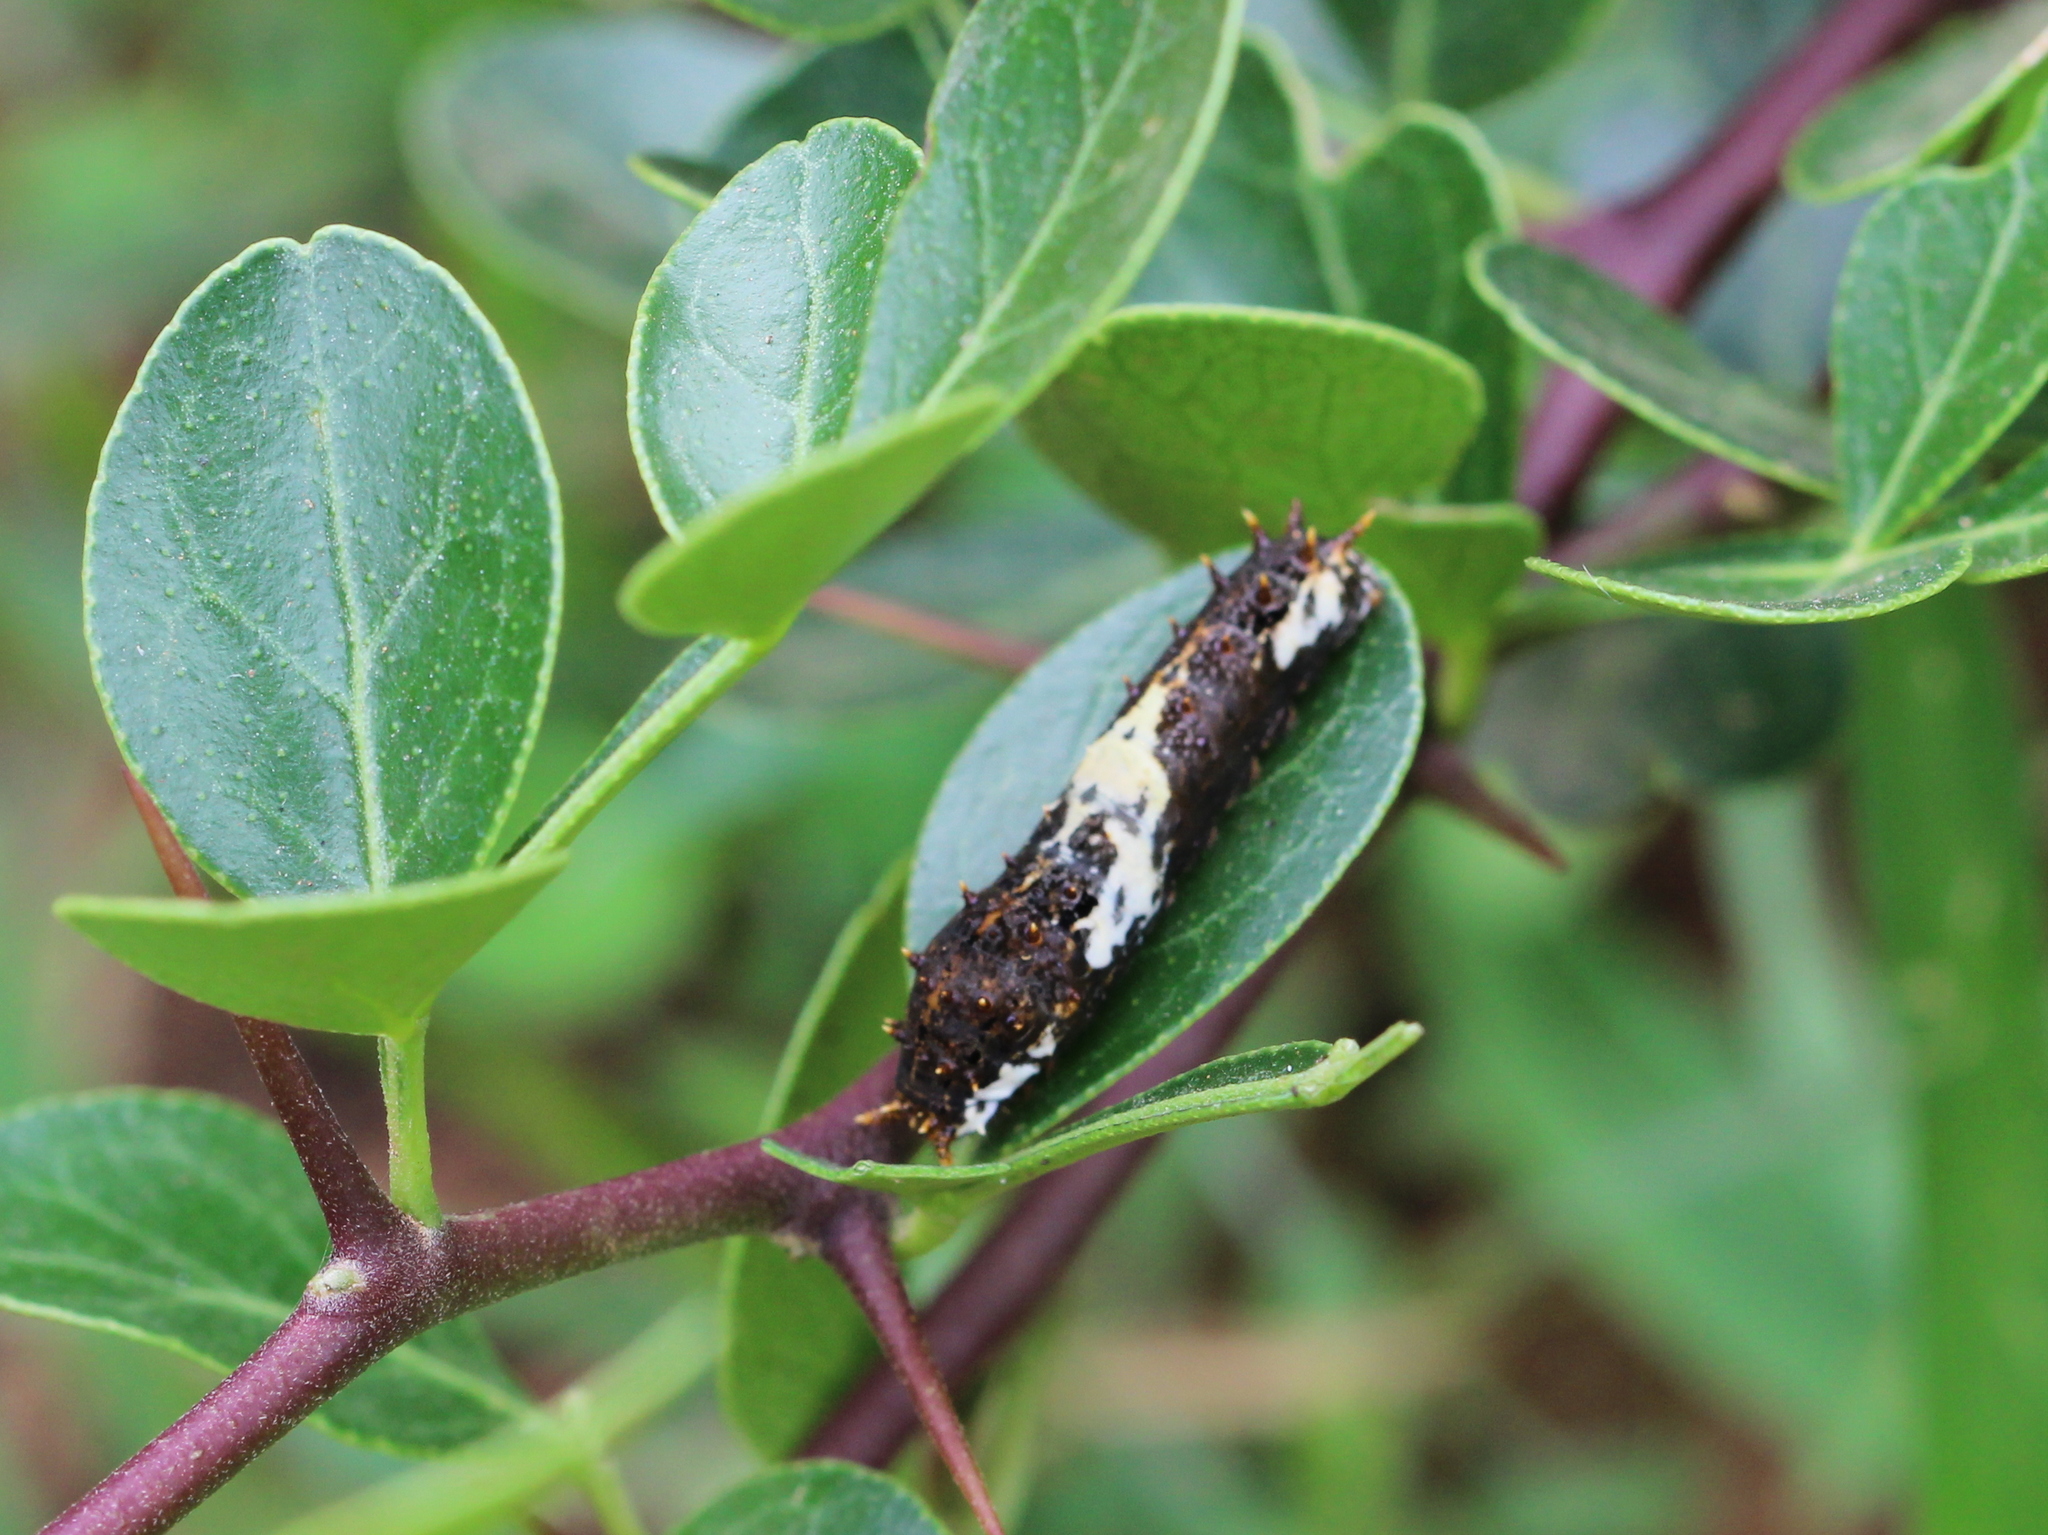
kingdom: Animalia
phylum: Arthropoda
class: Insecta
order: Lepidoptera
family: Papilionidae
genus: Papilio
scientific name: Papilio demoleus
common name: Lime butterfly
